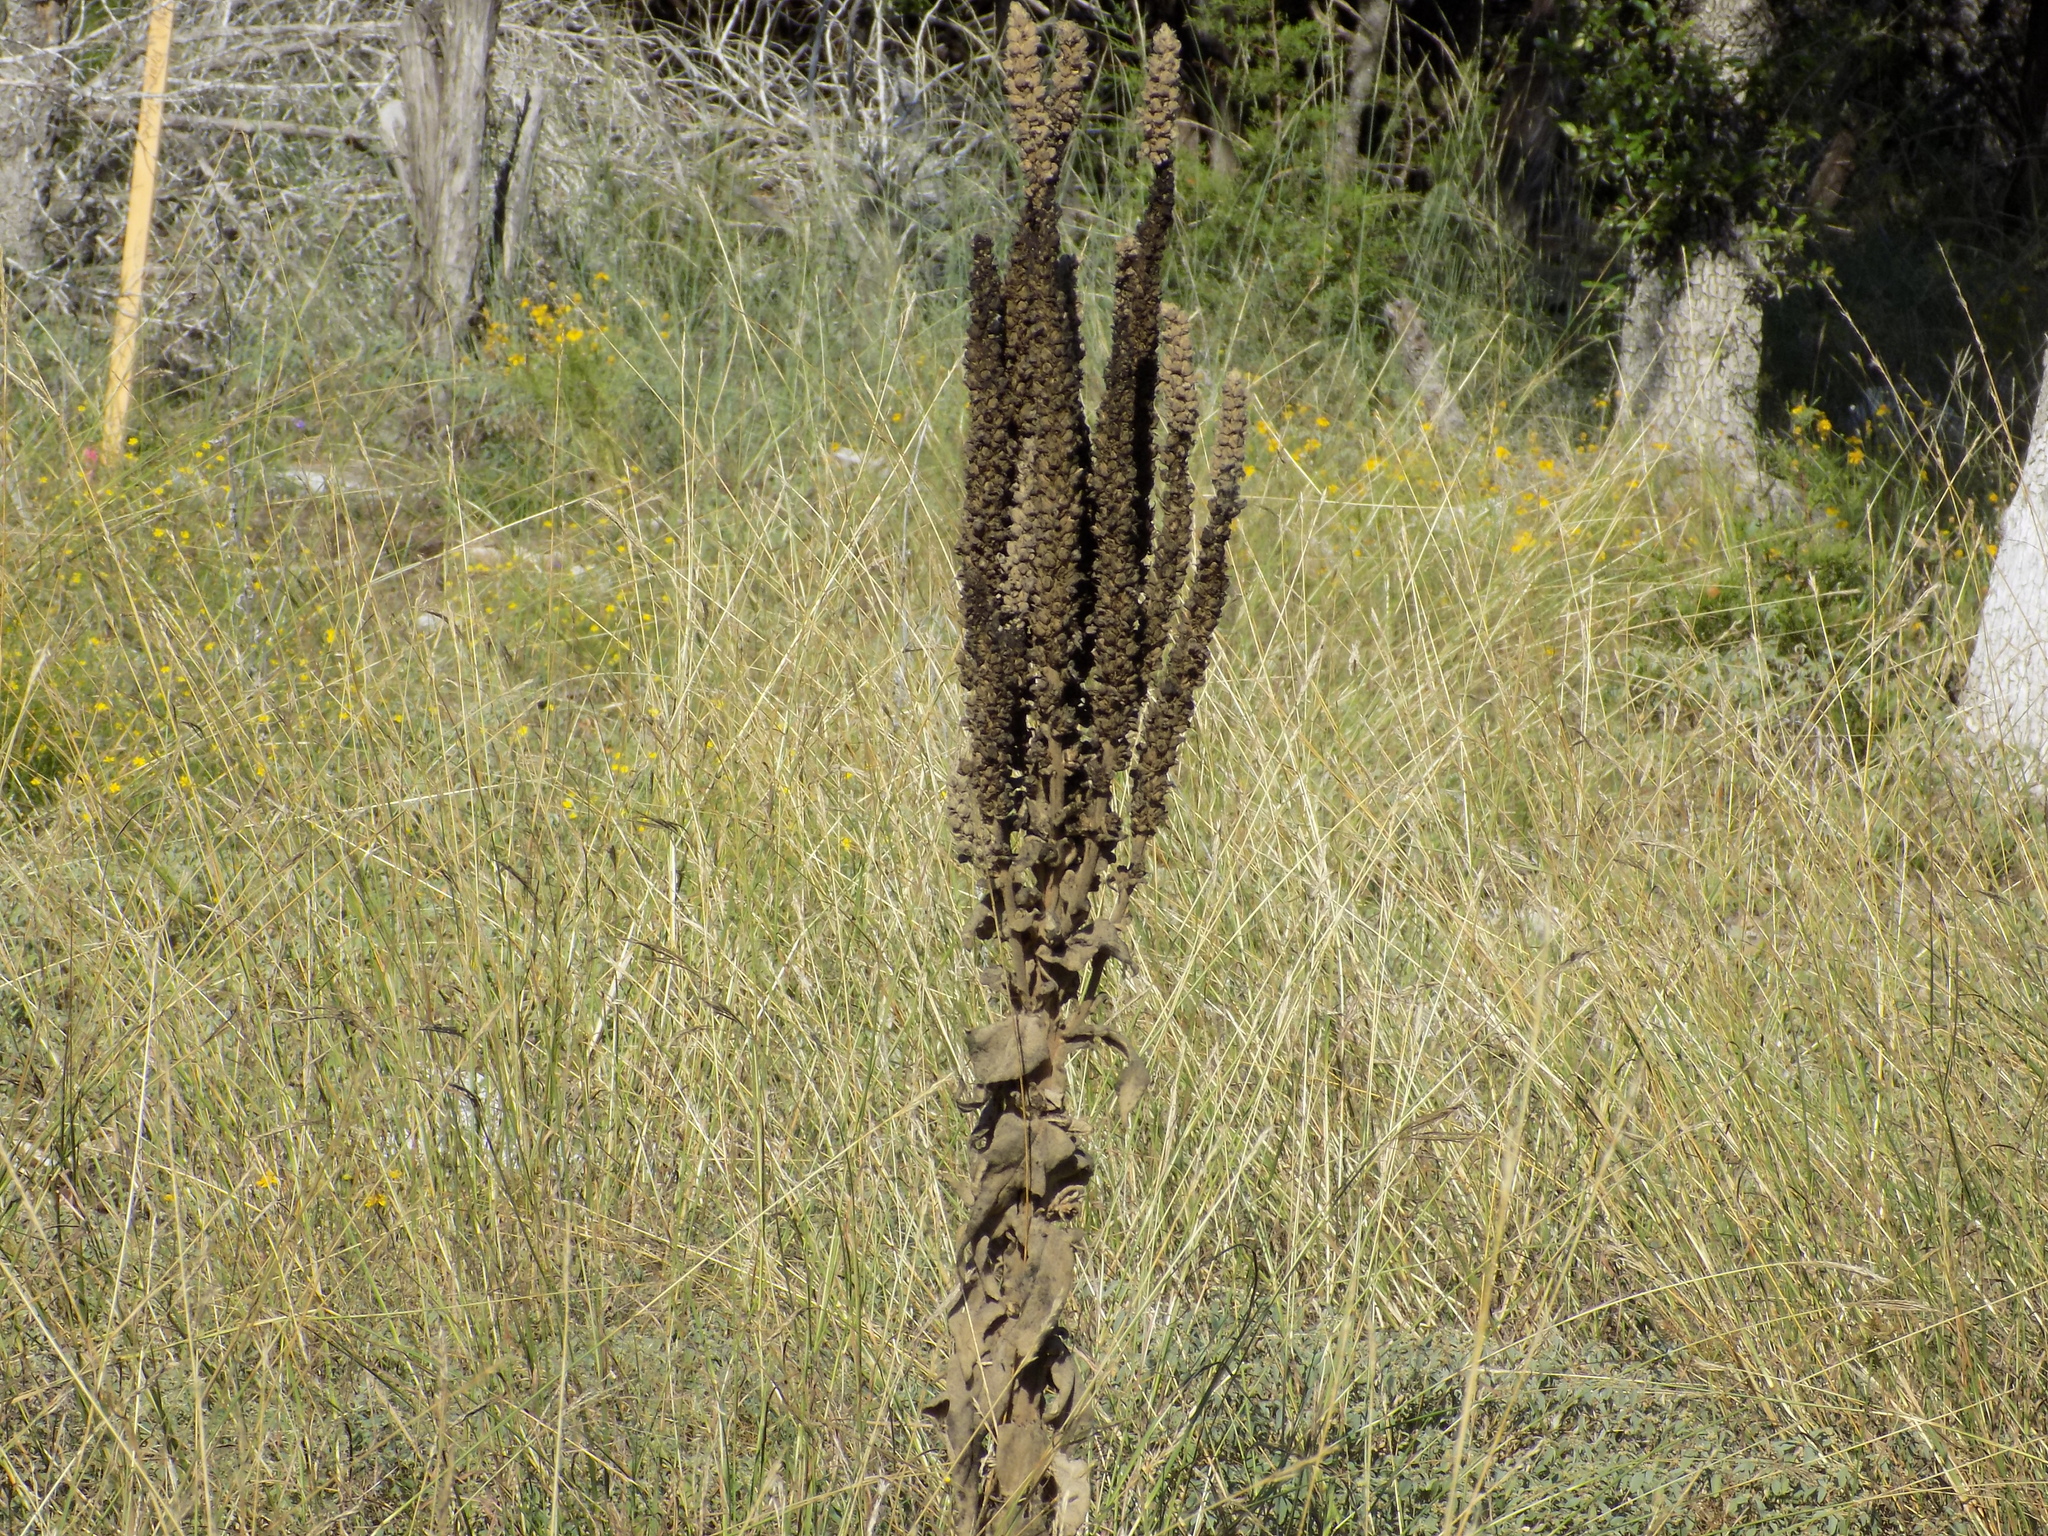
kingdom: Plantae
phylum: Tracheophyta
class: Magnoliopsida
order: Lamiales
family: Scrophulariaceae
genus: Verbascum
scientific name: Verbascum thapsus
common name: Common mullein
